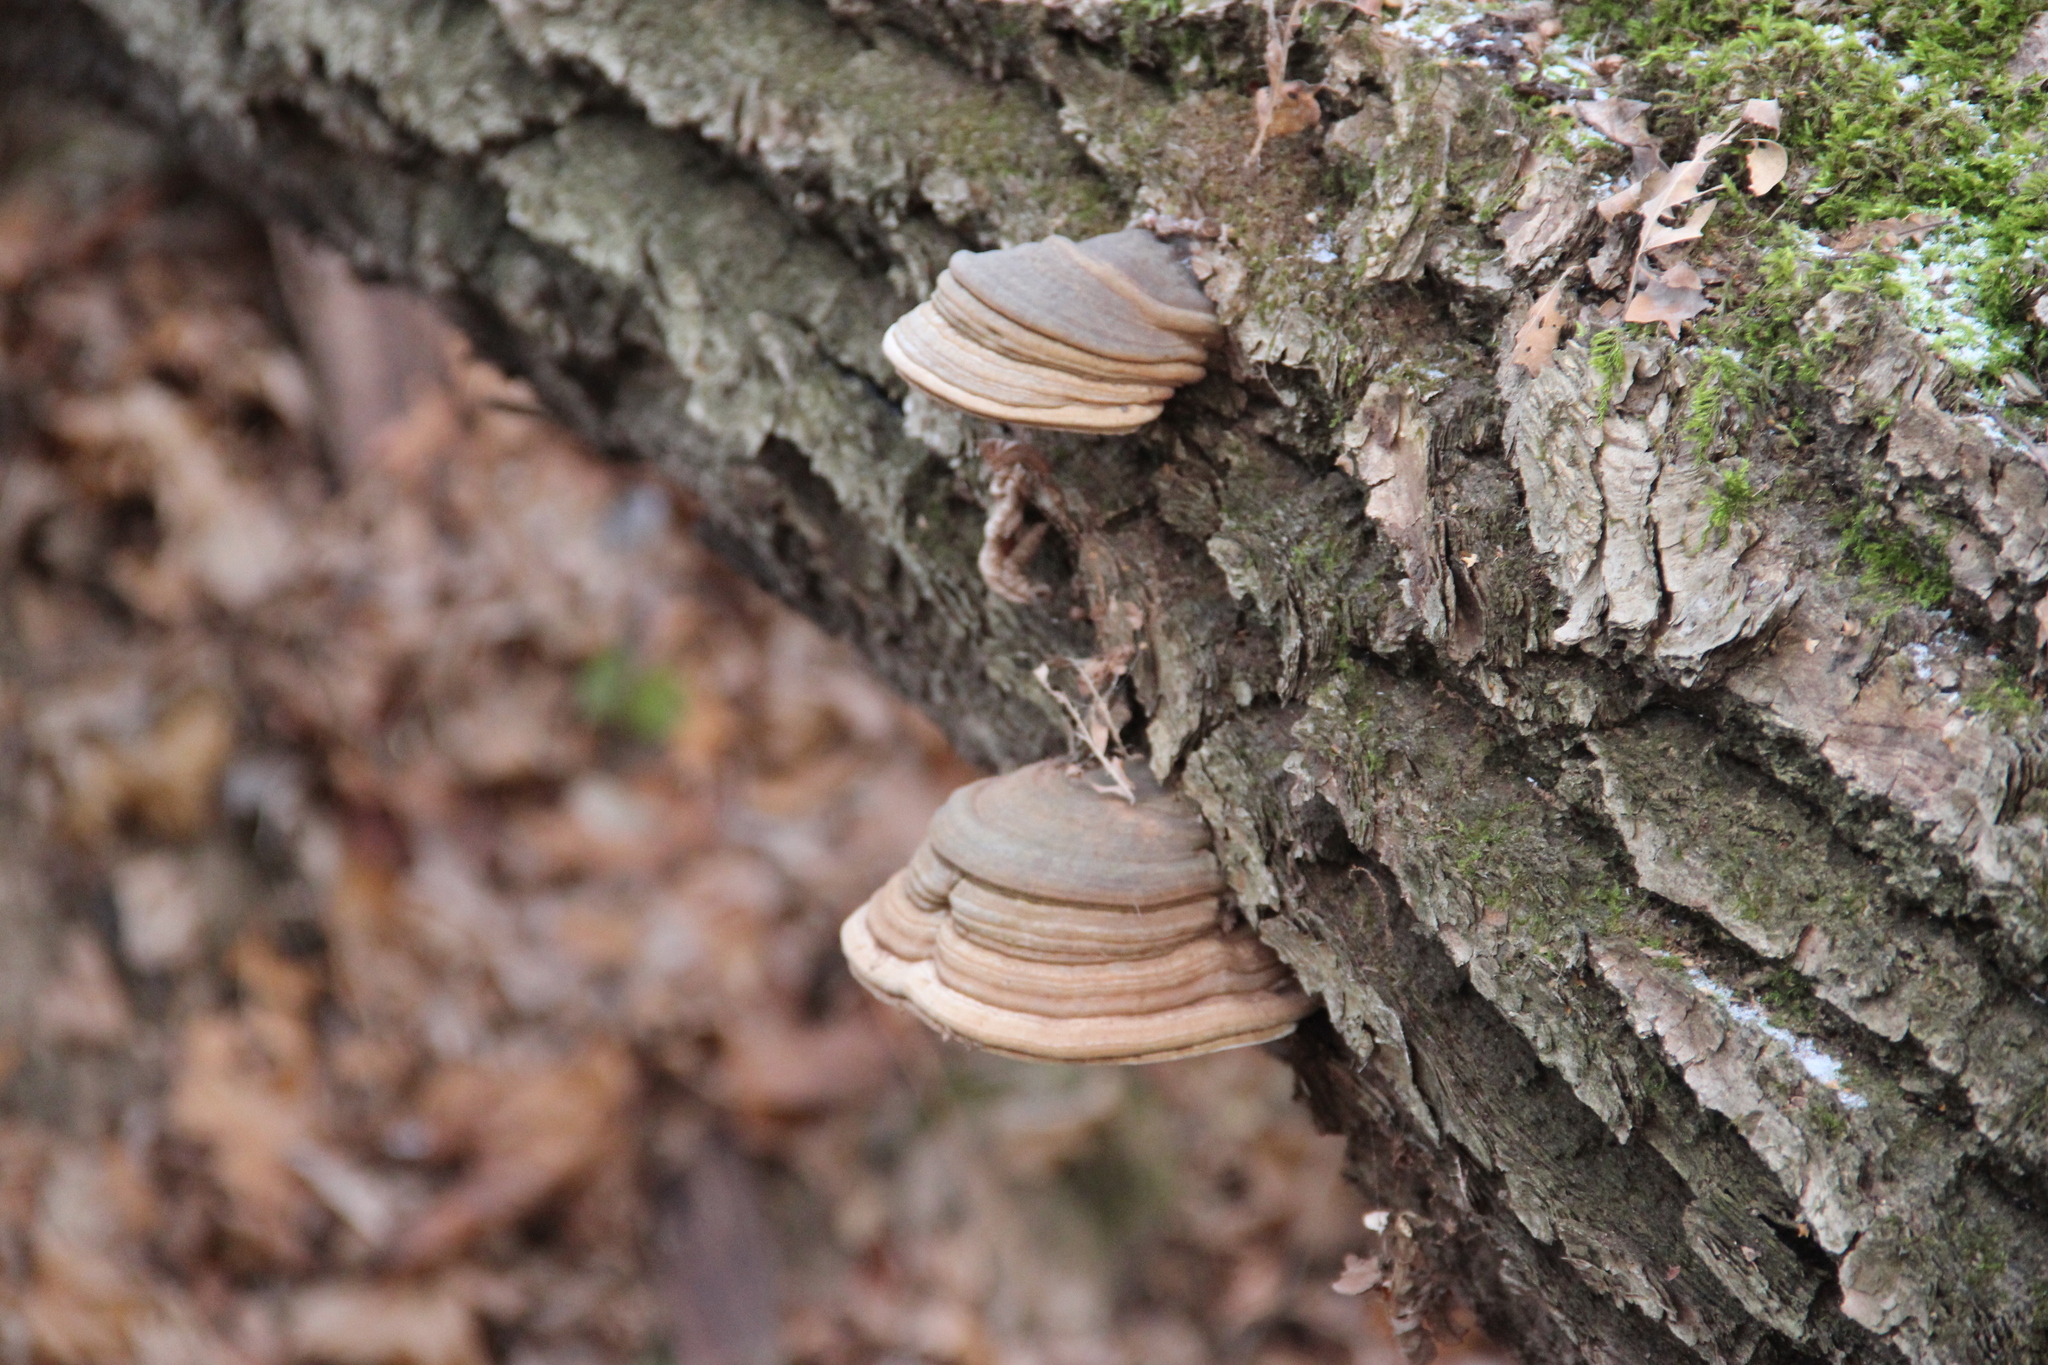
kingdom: Fungi
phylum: Basidiomycota
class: Agaricomycetes
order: Polyporales
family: Polyporaceae
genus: Fomes
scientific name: Fomes fomentarius
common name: Hoof fungus
